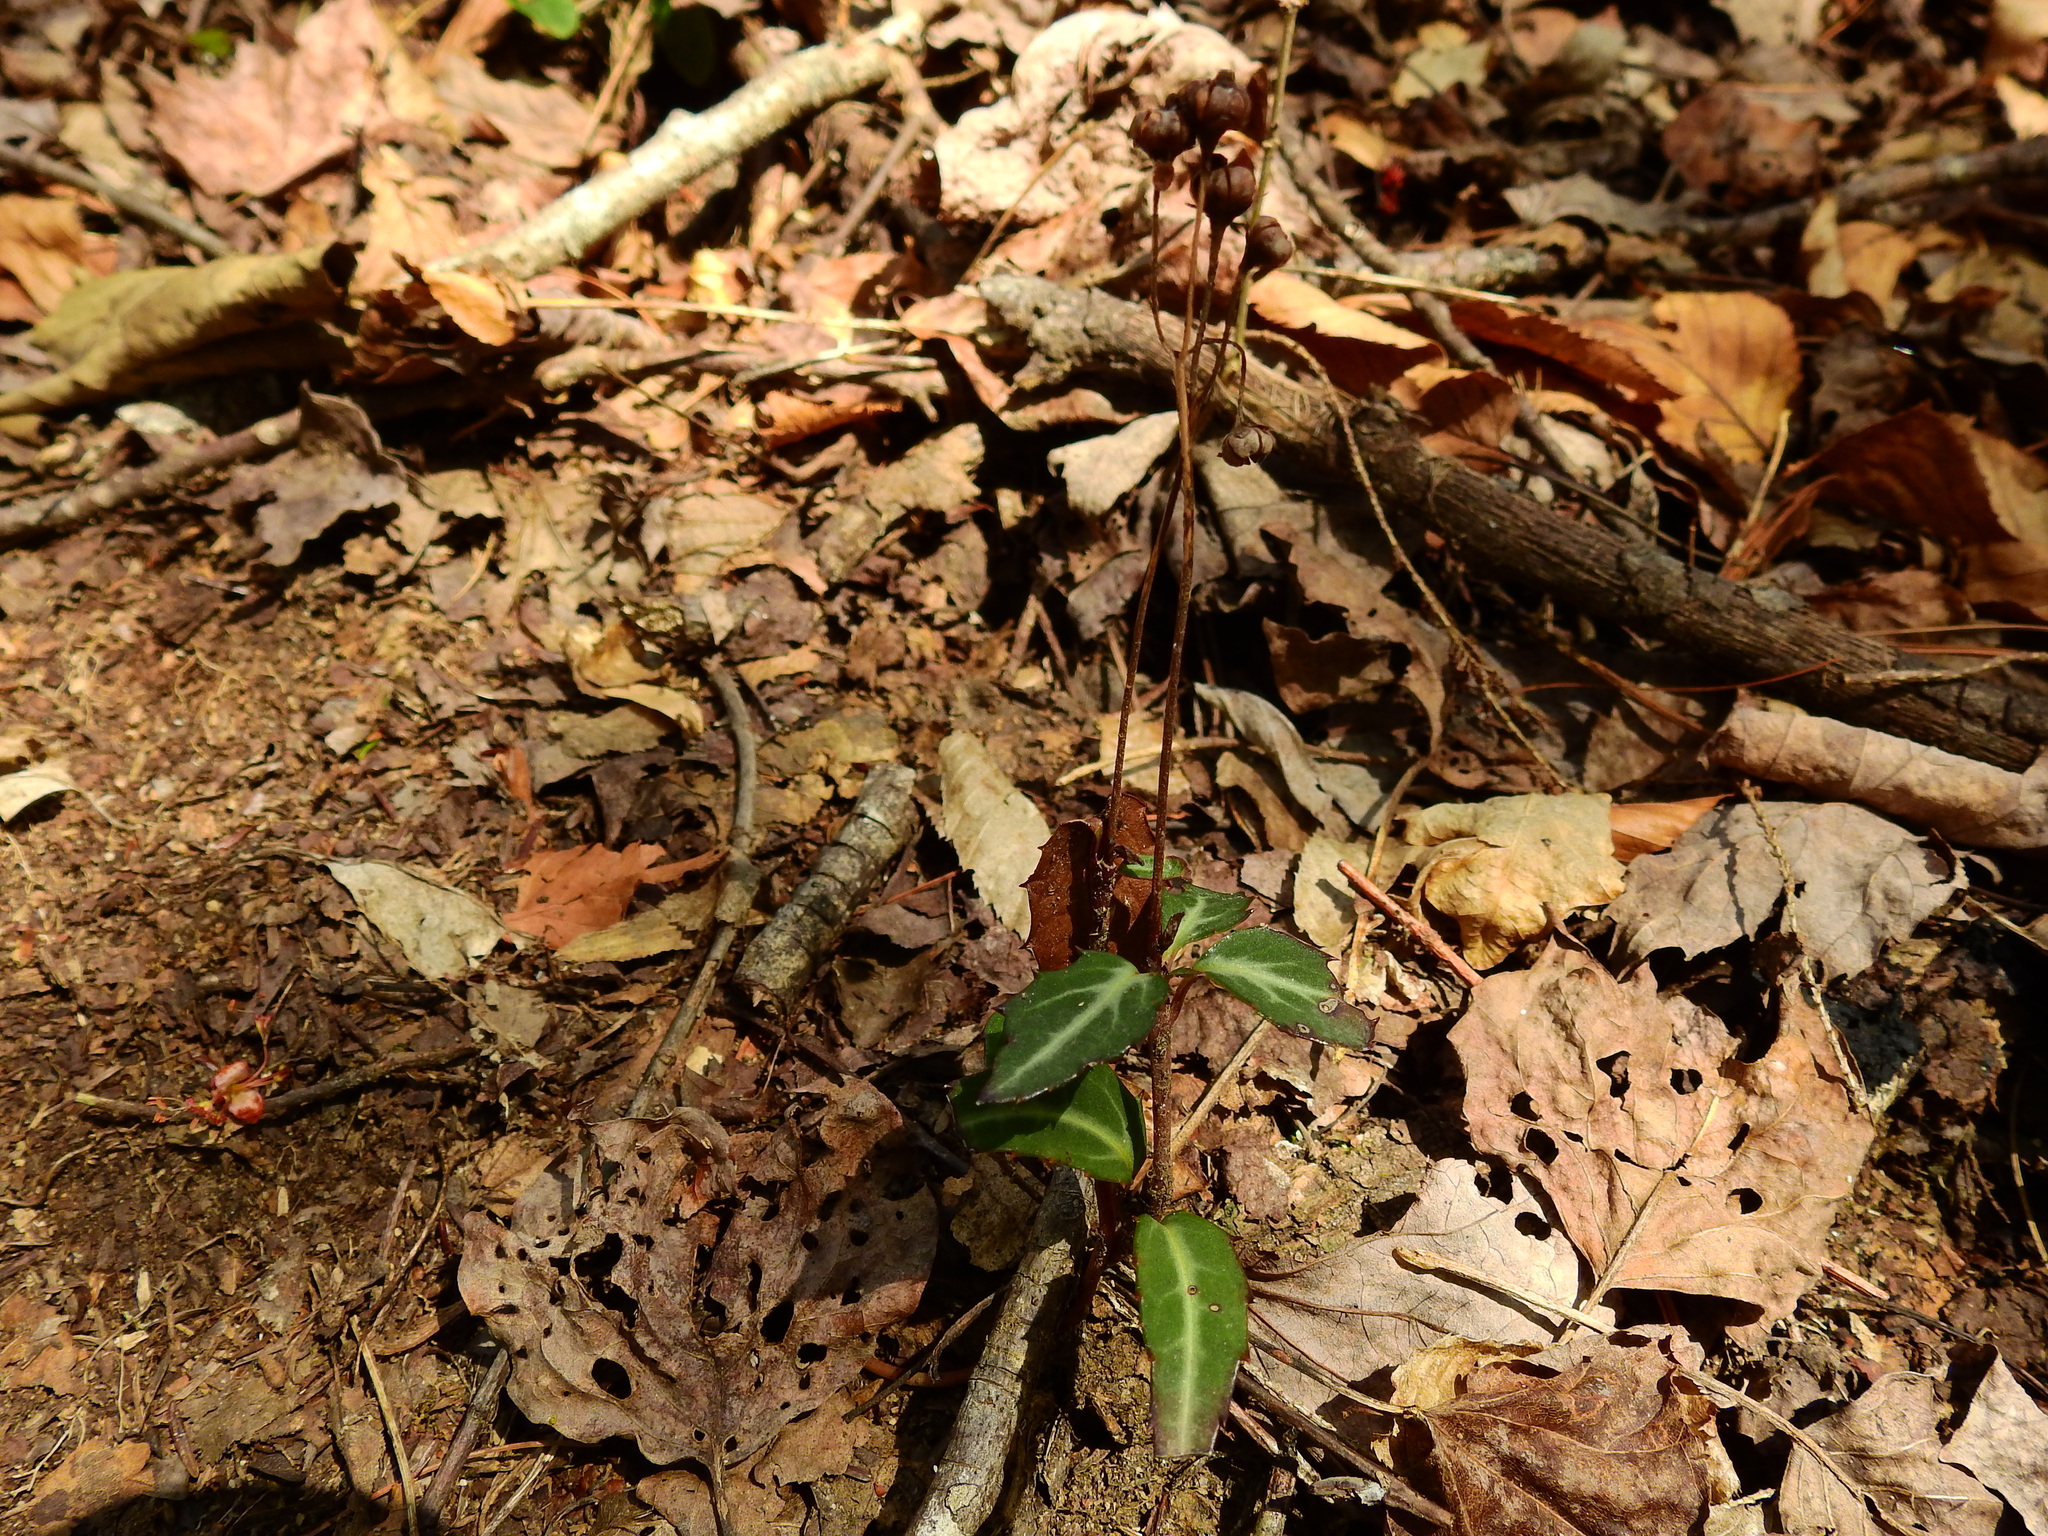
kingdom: Plantae
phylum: Tracheophyta
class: Magnoliopsida
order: Ericales
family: Ericaceae
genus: Chimaphila
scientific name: Chimaphila maculata
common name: Spotted pipsissewa
